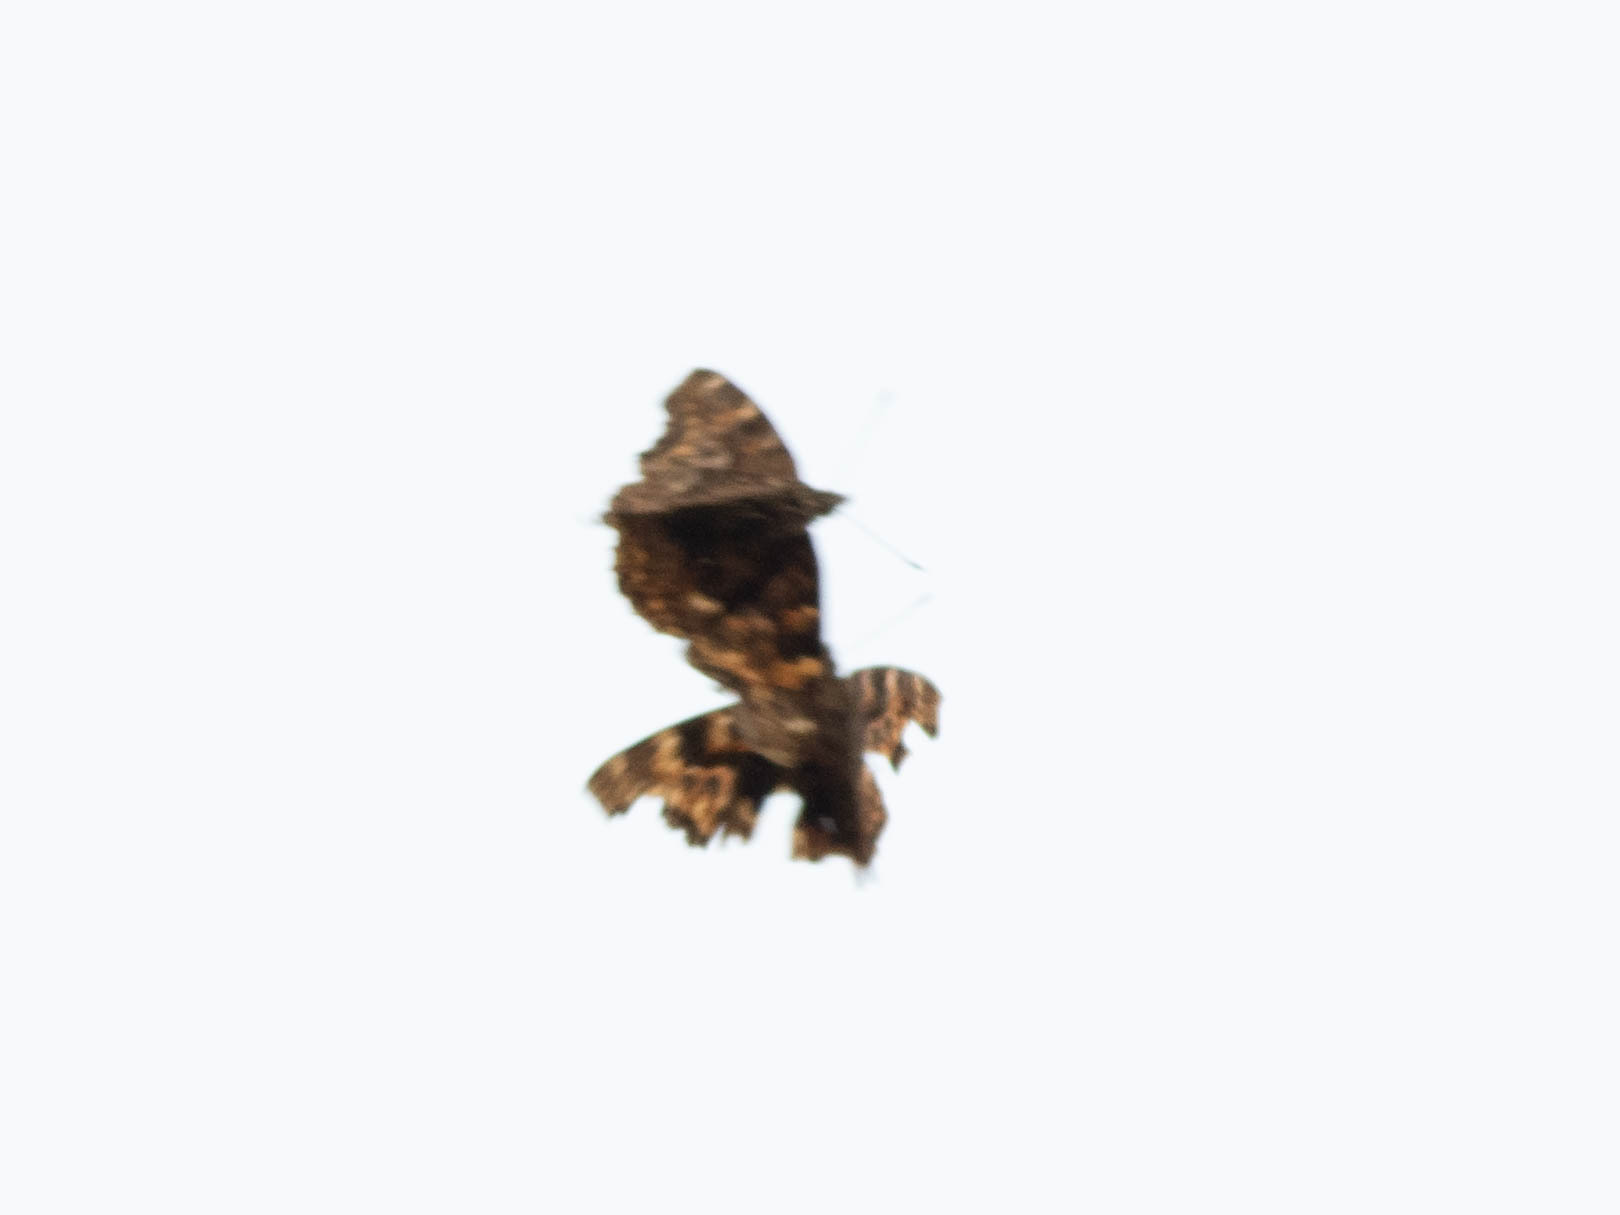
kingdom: Animalia
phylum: Arthropoda
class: Insecta
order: Lepidoptera
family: Nymphalidae
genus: Polygonia
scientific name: Polygonia vaualbum
